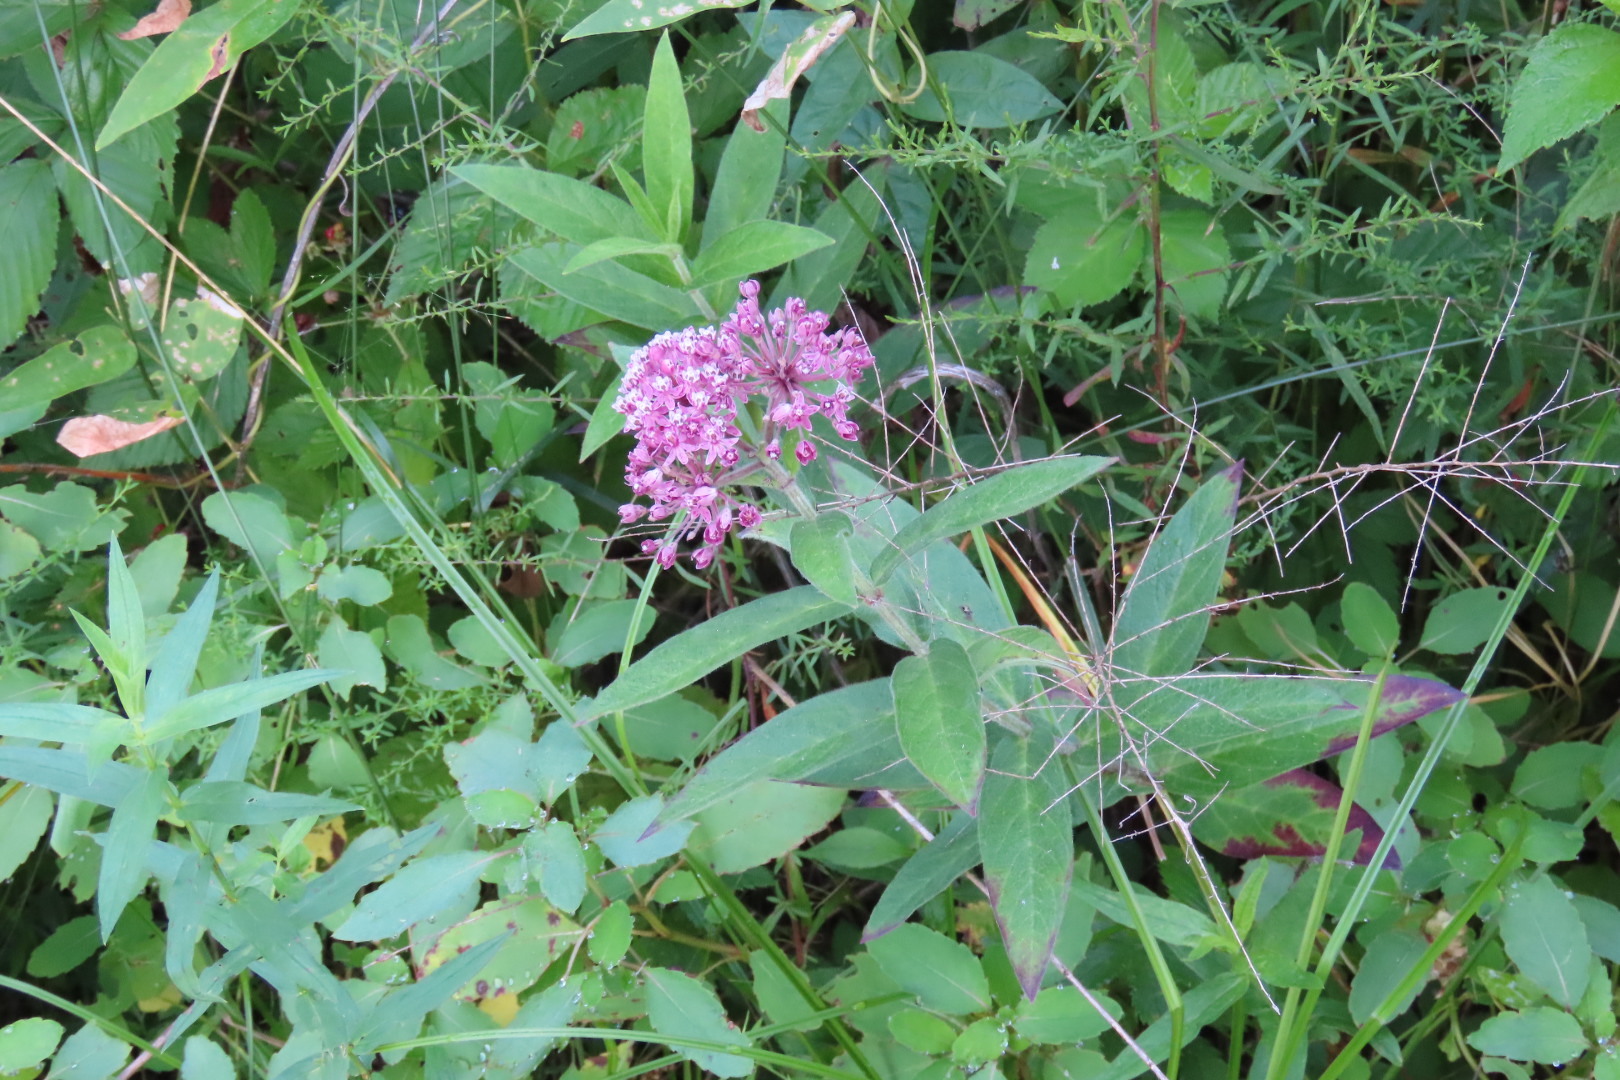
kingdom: Plantae
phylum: Tracheophyta
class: Magnoliopsida
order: Gentianales
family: Apocynaceae
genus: Asclepias
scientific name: Asclepias incarnata
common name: Swamp milkweed
